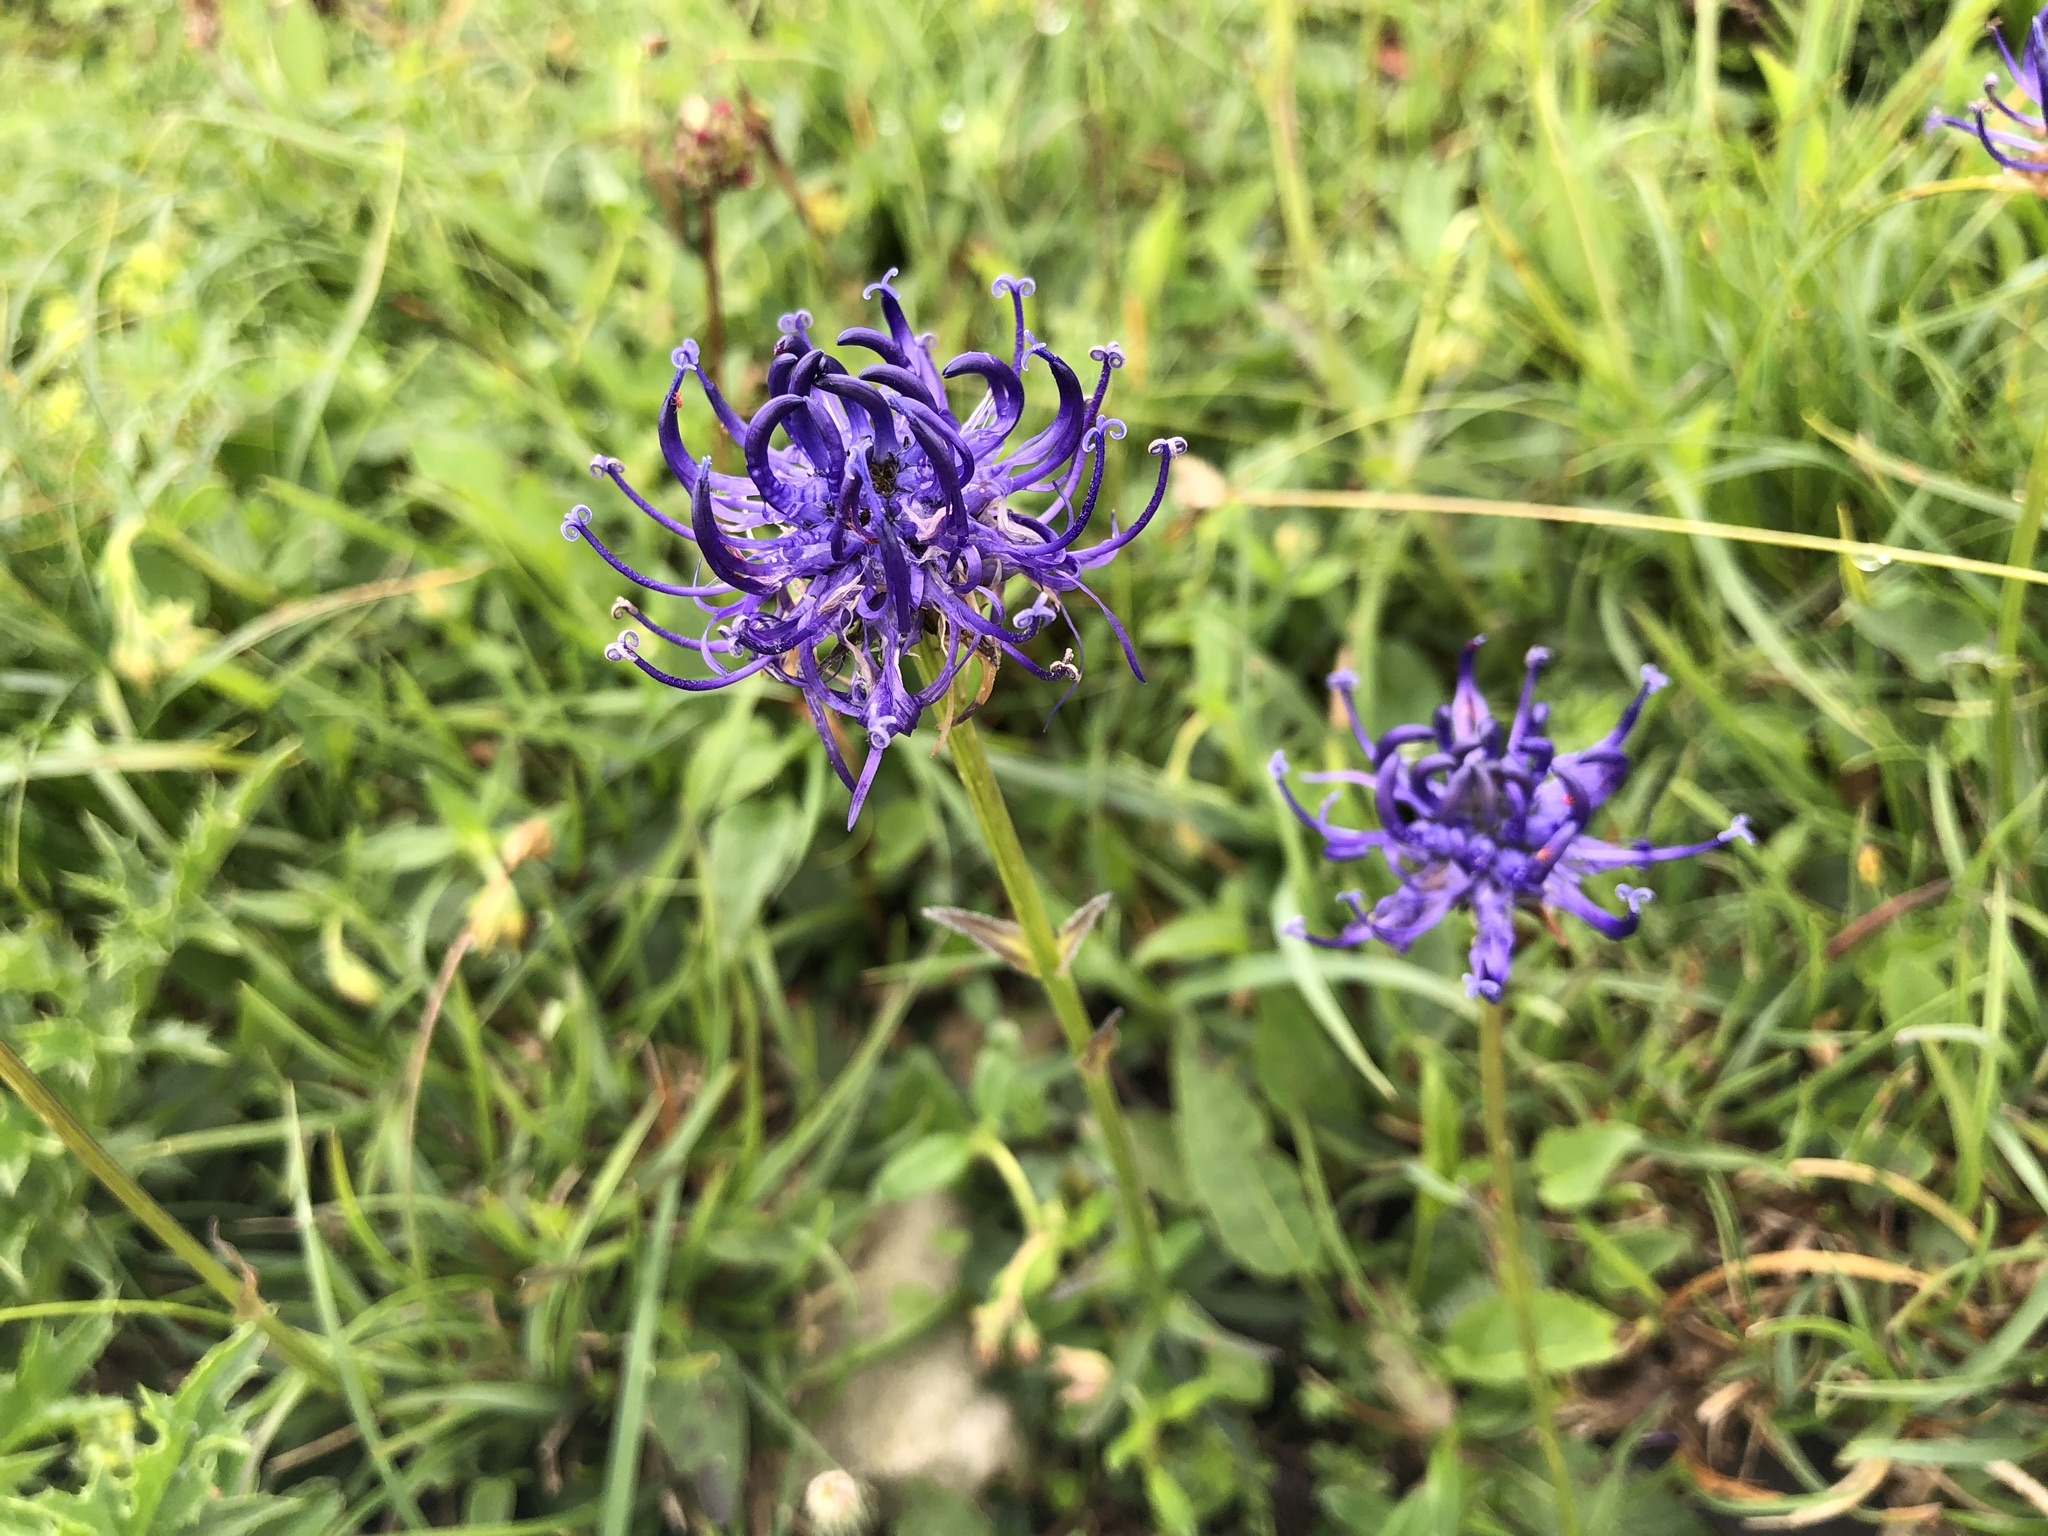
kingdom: Plantae
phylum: Tracheophyta
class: Magnoliopsida
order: Asterales
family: Campanulaceae
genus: Phyteuma
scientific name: Phyteuma orbiculare
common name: Round-headed rampion
